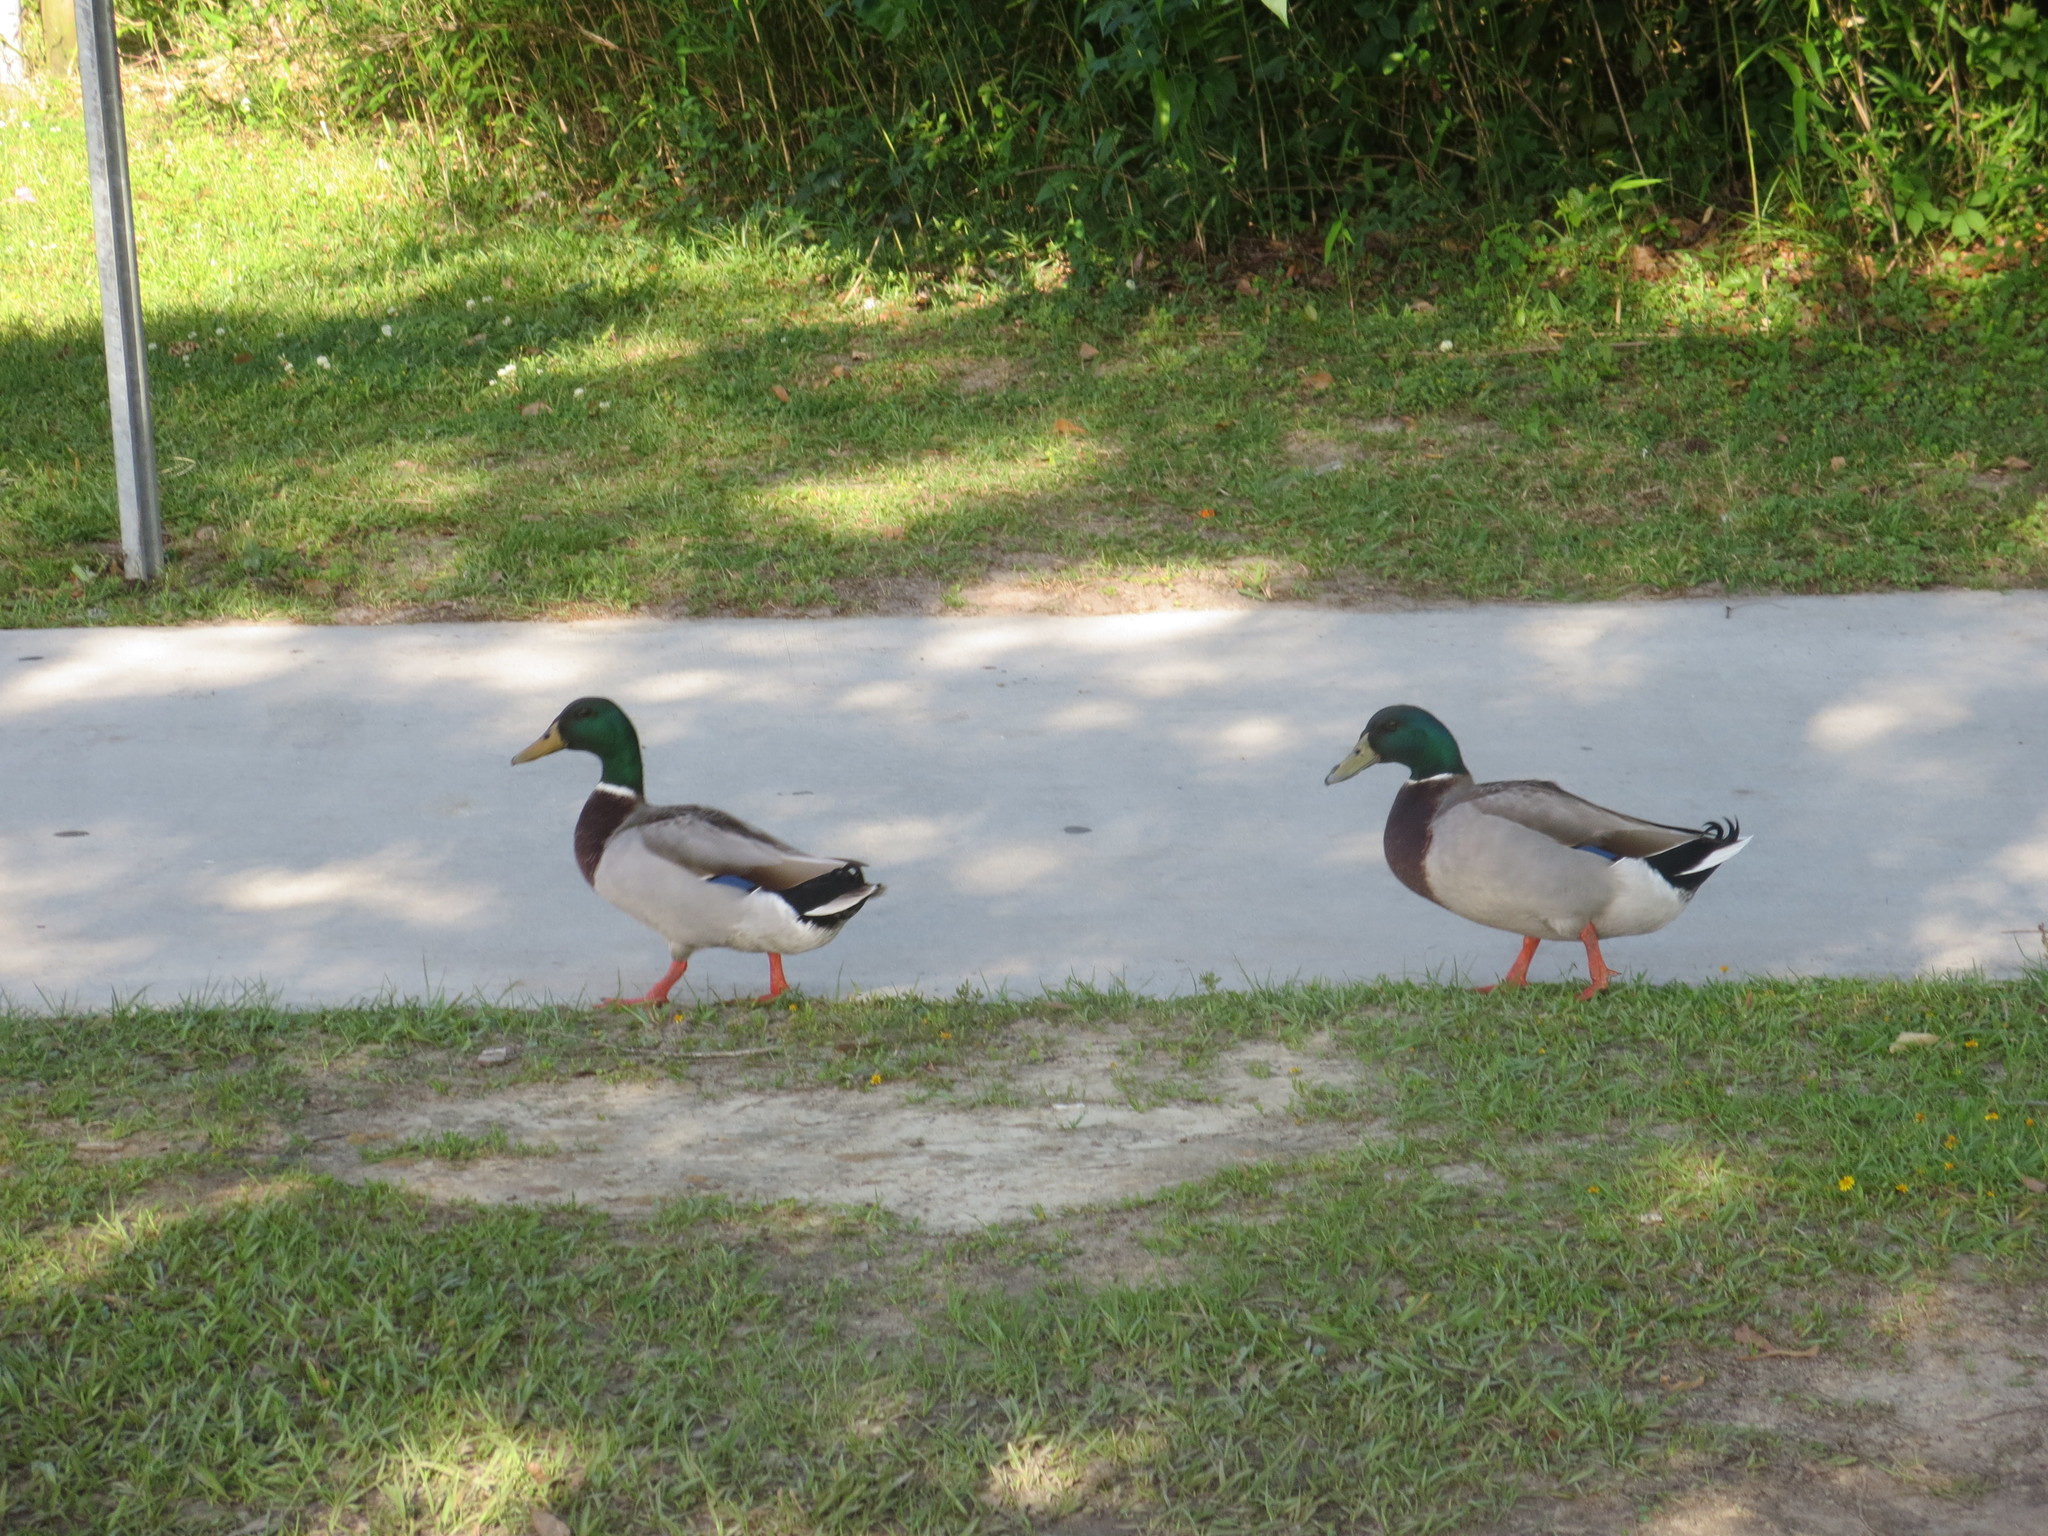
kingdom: Animalia
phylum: Chordata
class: Aves
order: Anseriformes
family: Anatidae
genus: Anas
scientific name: Anas platyrhynchos
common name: Mallard
